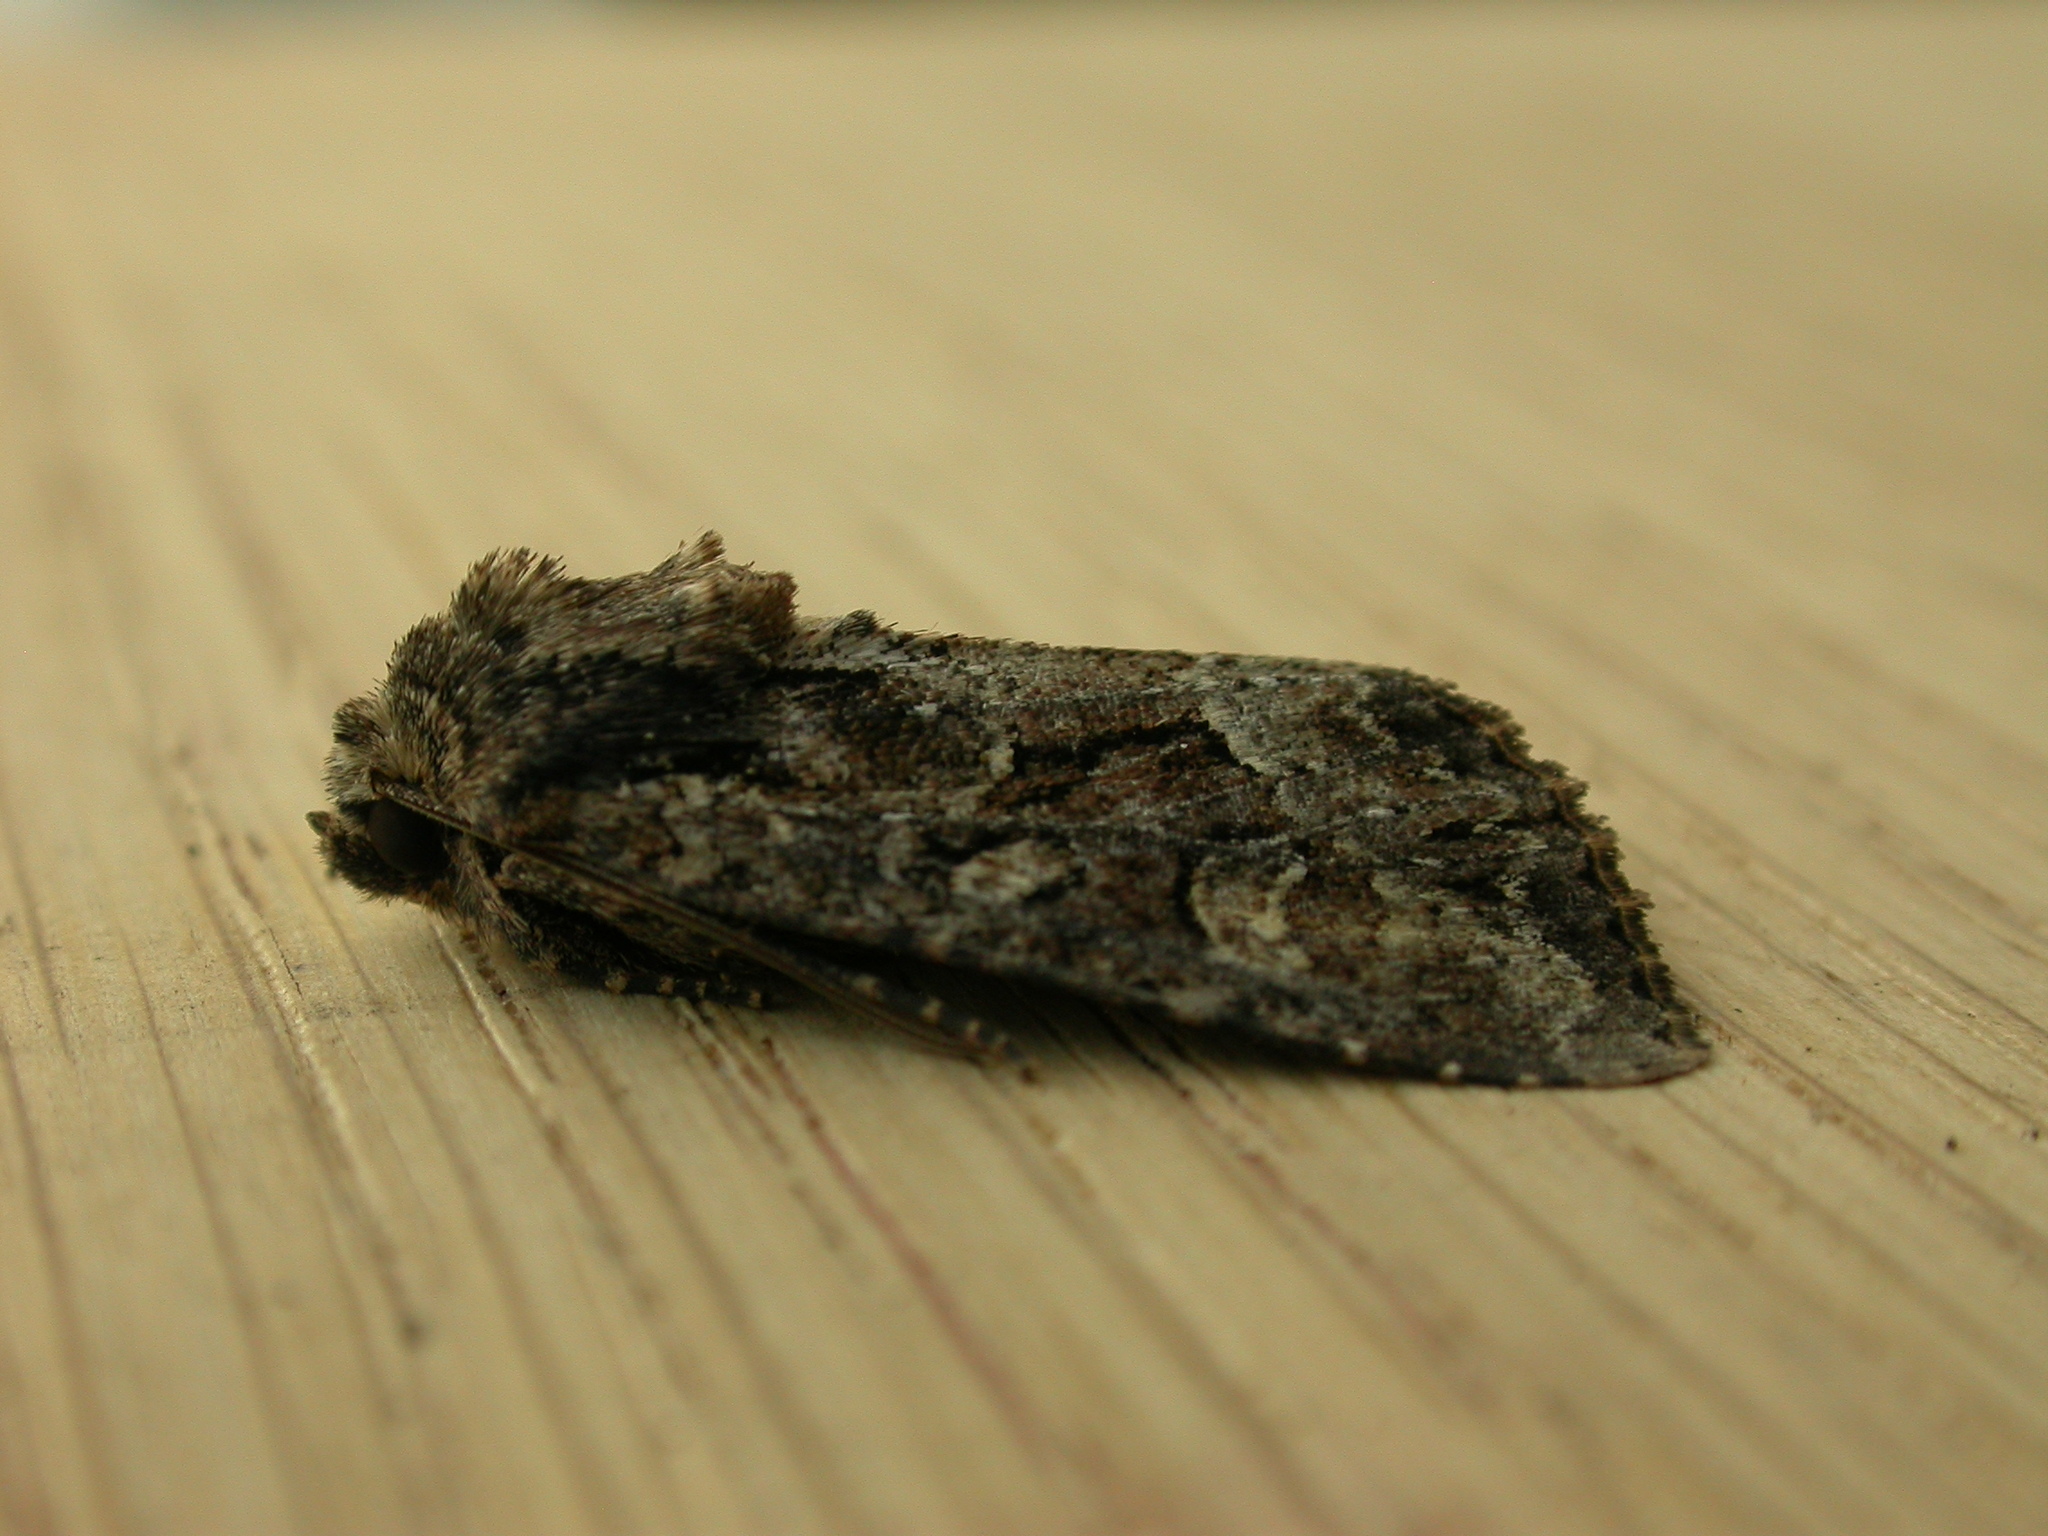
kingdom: Animalia
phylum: Arthropoda
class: Insecta
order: Lepidoptera
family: Noctuidae
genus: Apamea
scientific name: Apamea remissa
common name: Dusky brocade
